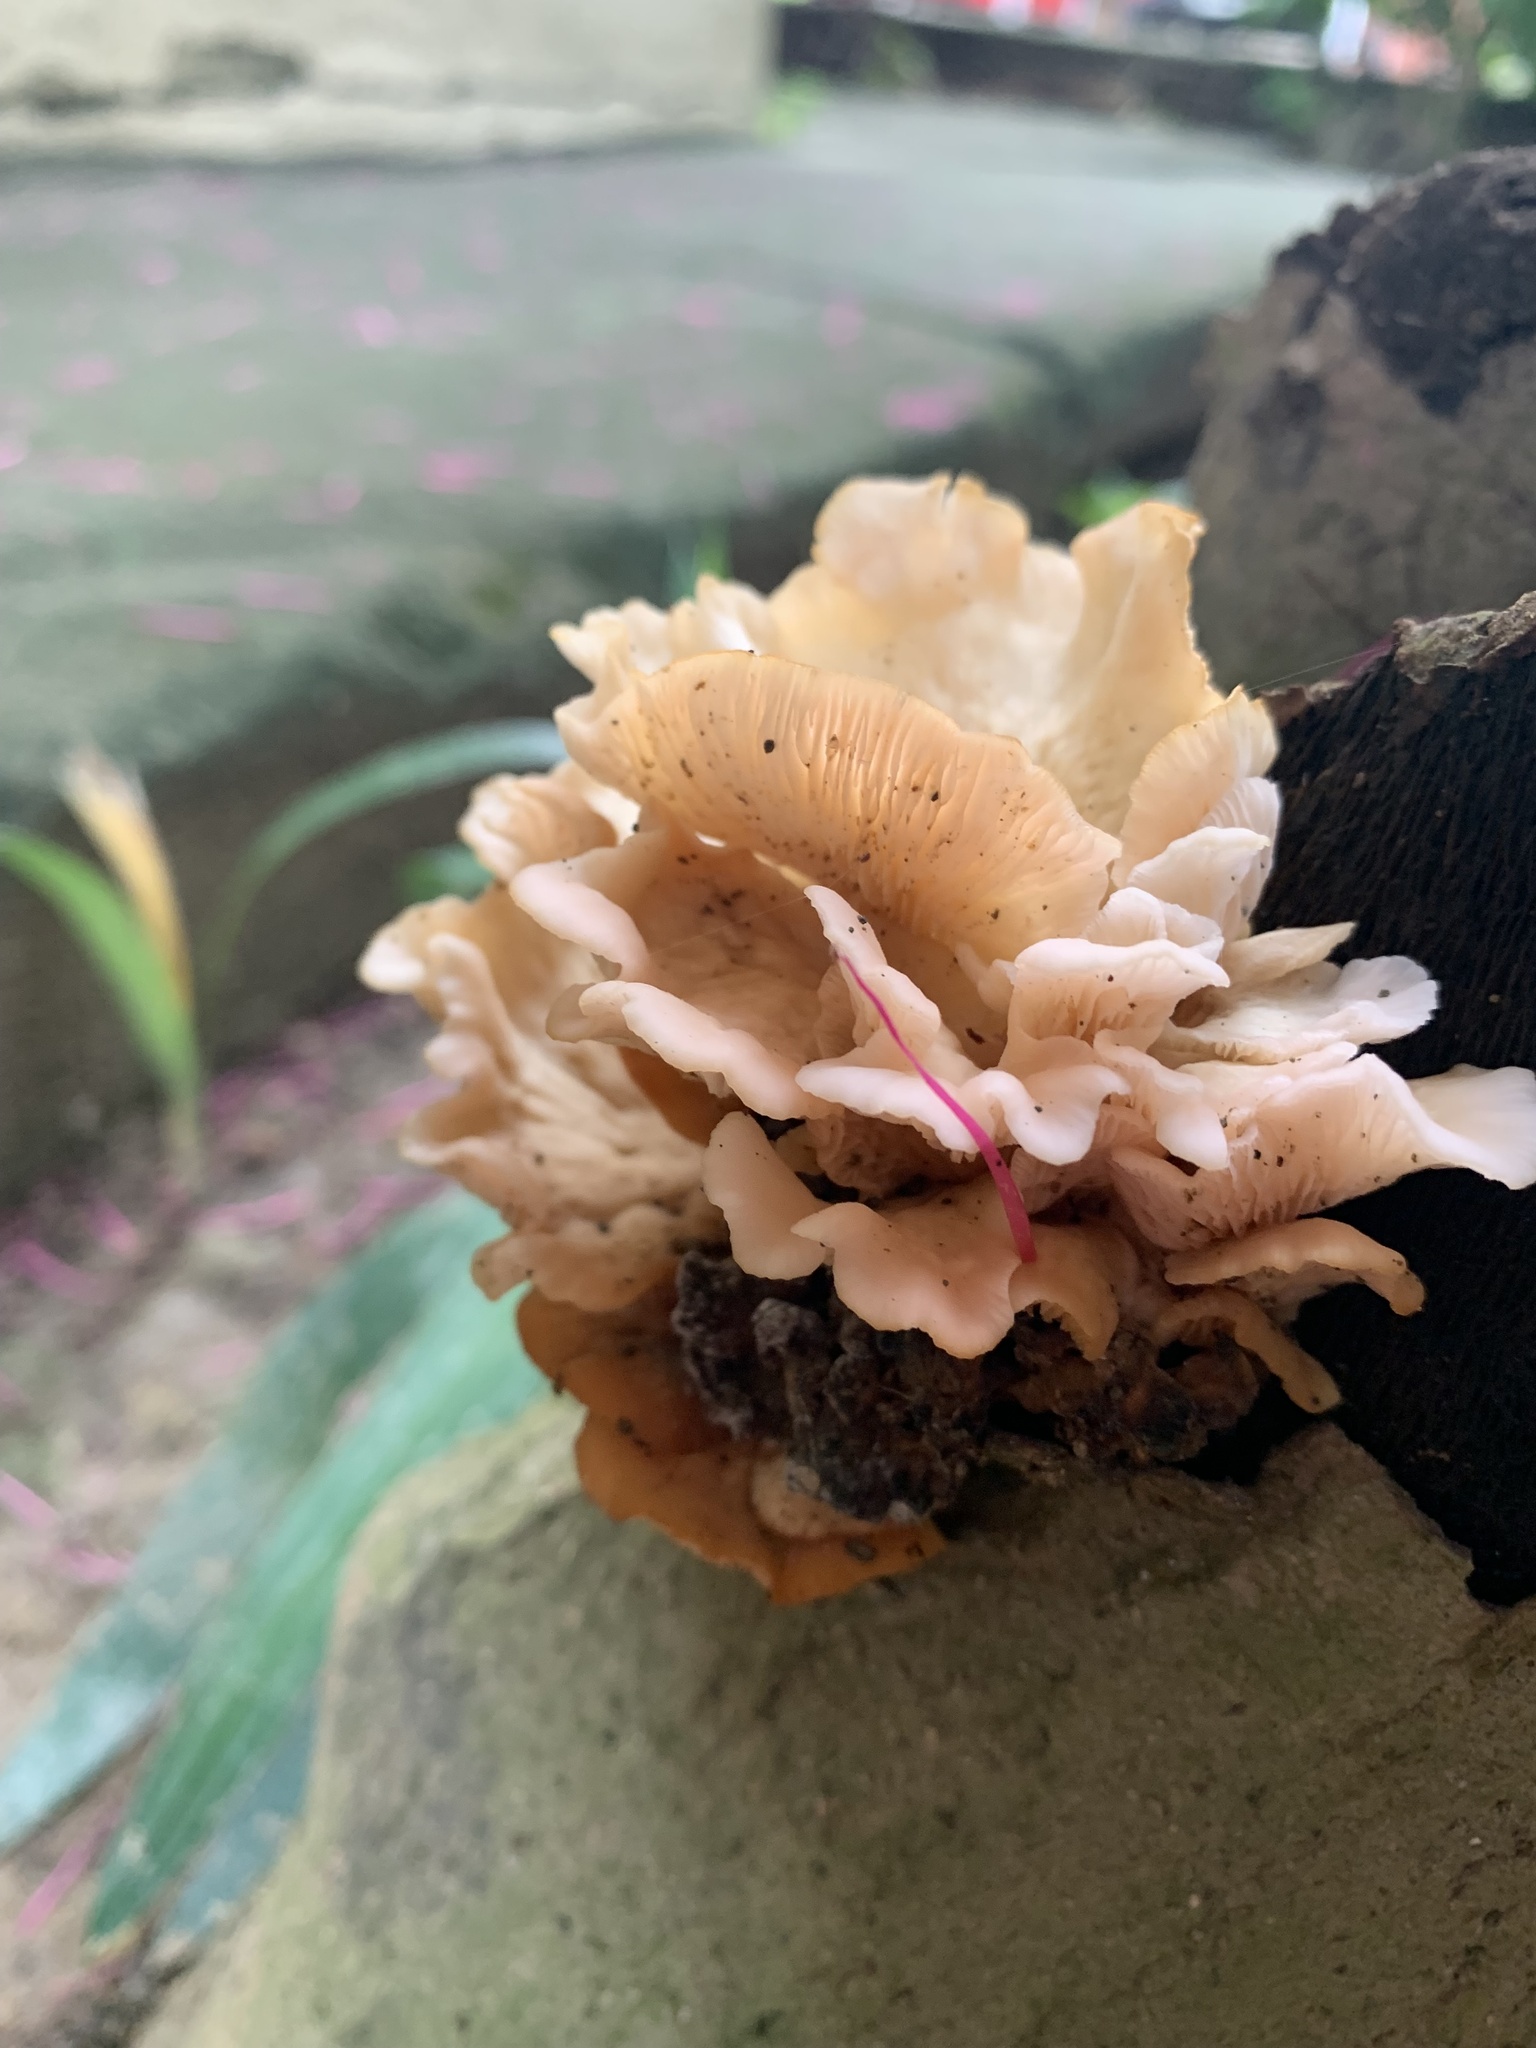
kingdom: Fungi
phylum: Basidiomycota
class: Agaricomycetes
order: Agaricales
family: Pleurotaceae
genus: Pleurotus
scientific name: Pleurotus djamor
